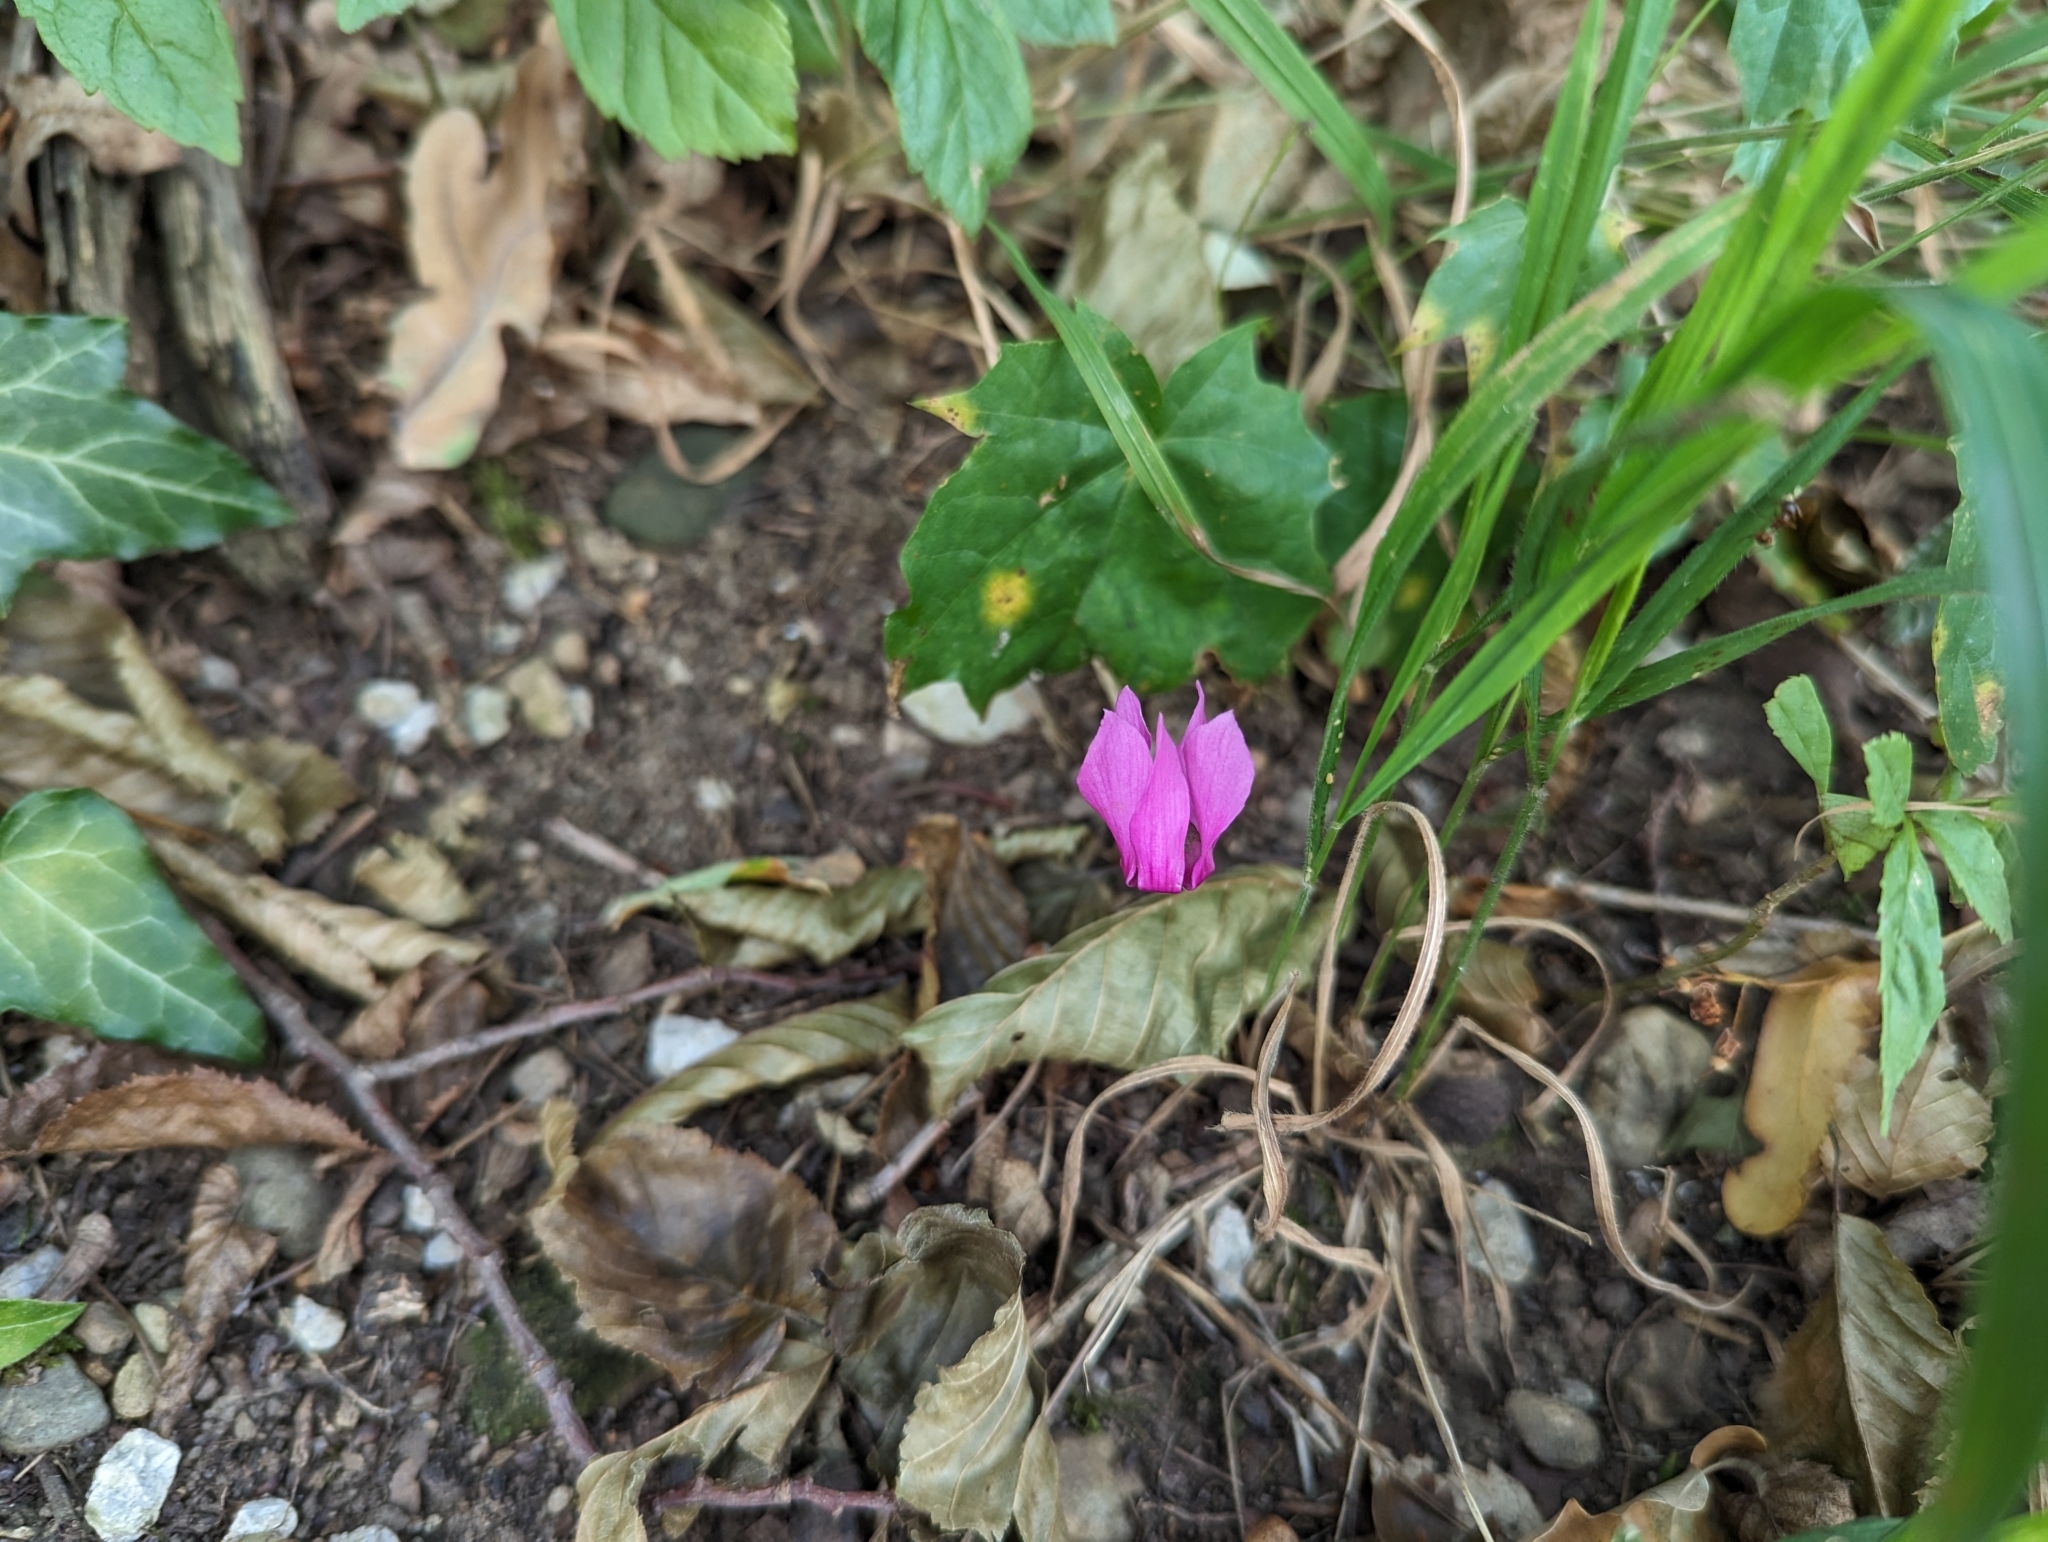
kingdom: Plantae
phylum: Tracheophyta
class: Magnoliopsida
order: Ericales
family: Primulaceae
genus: Cyclamen
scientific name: Cyclamen purpurascens
